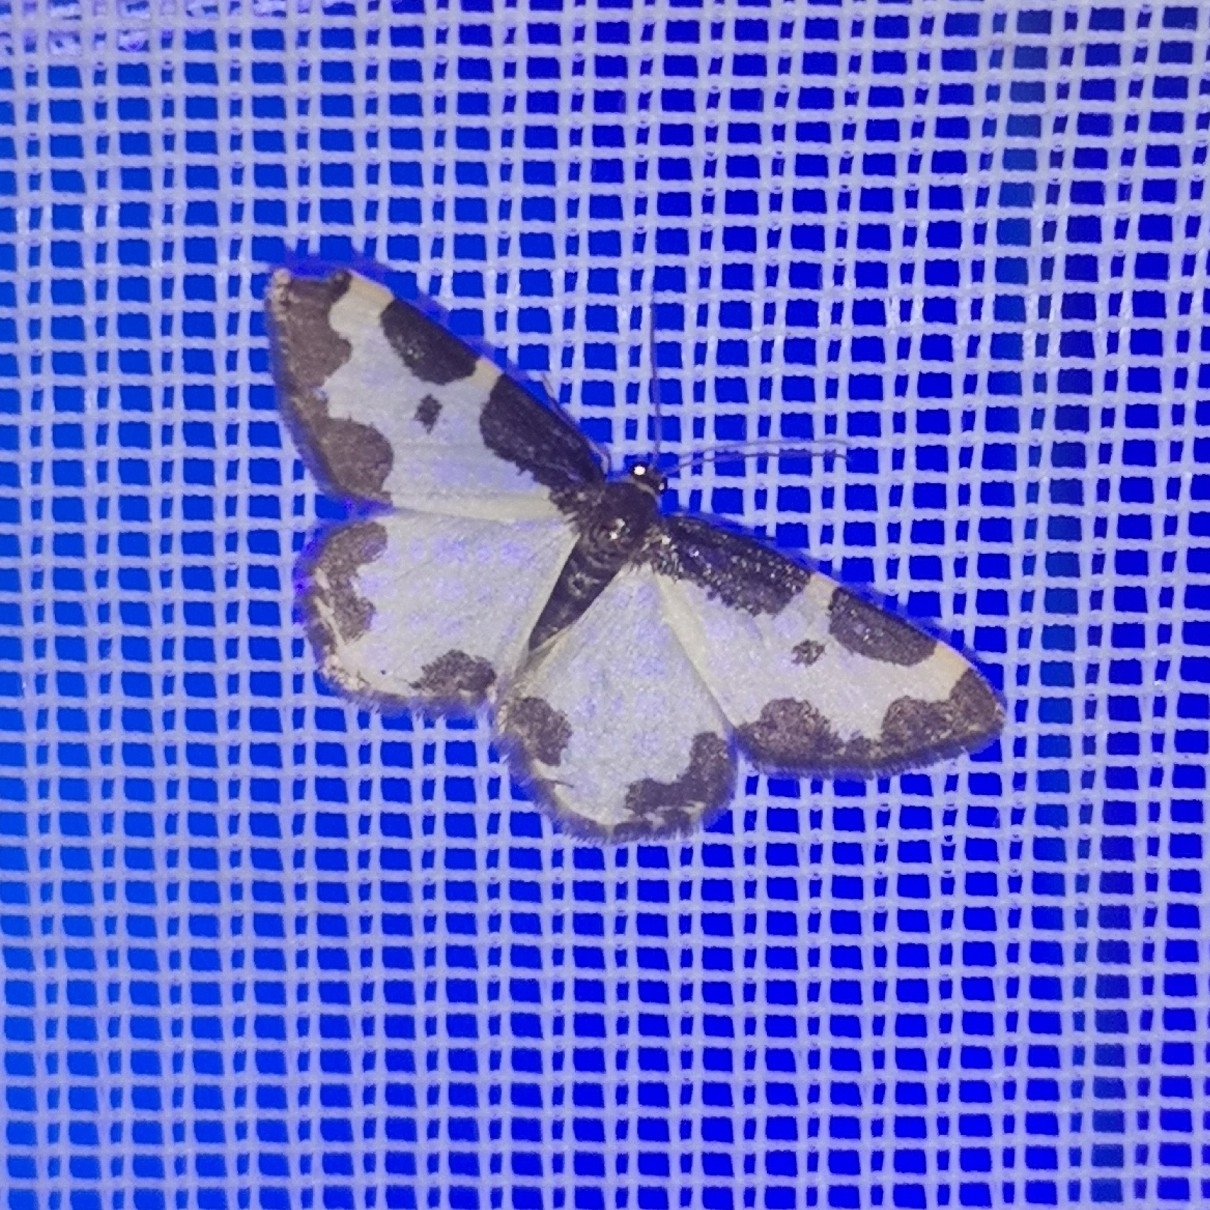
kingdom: Animalia
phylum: Arthropoda
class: Insecta
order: Lepidoptera
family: Geometridae
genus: Lomaspilis
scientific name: Lomaspilis marginata
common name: Clouded border
